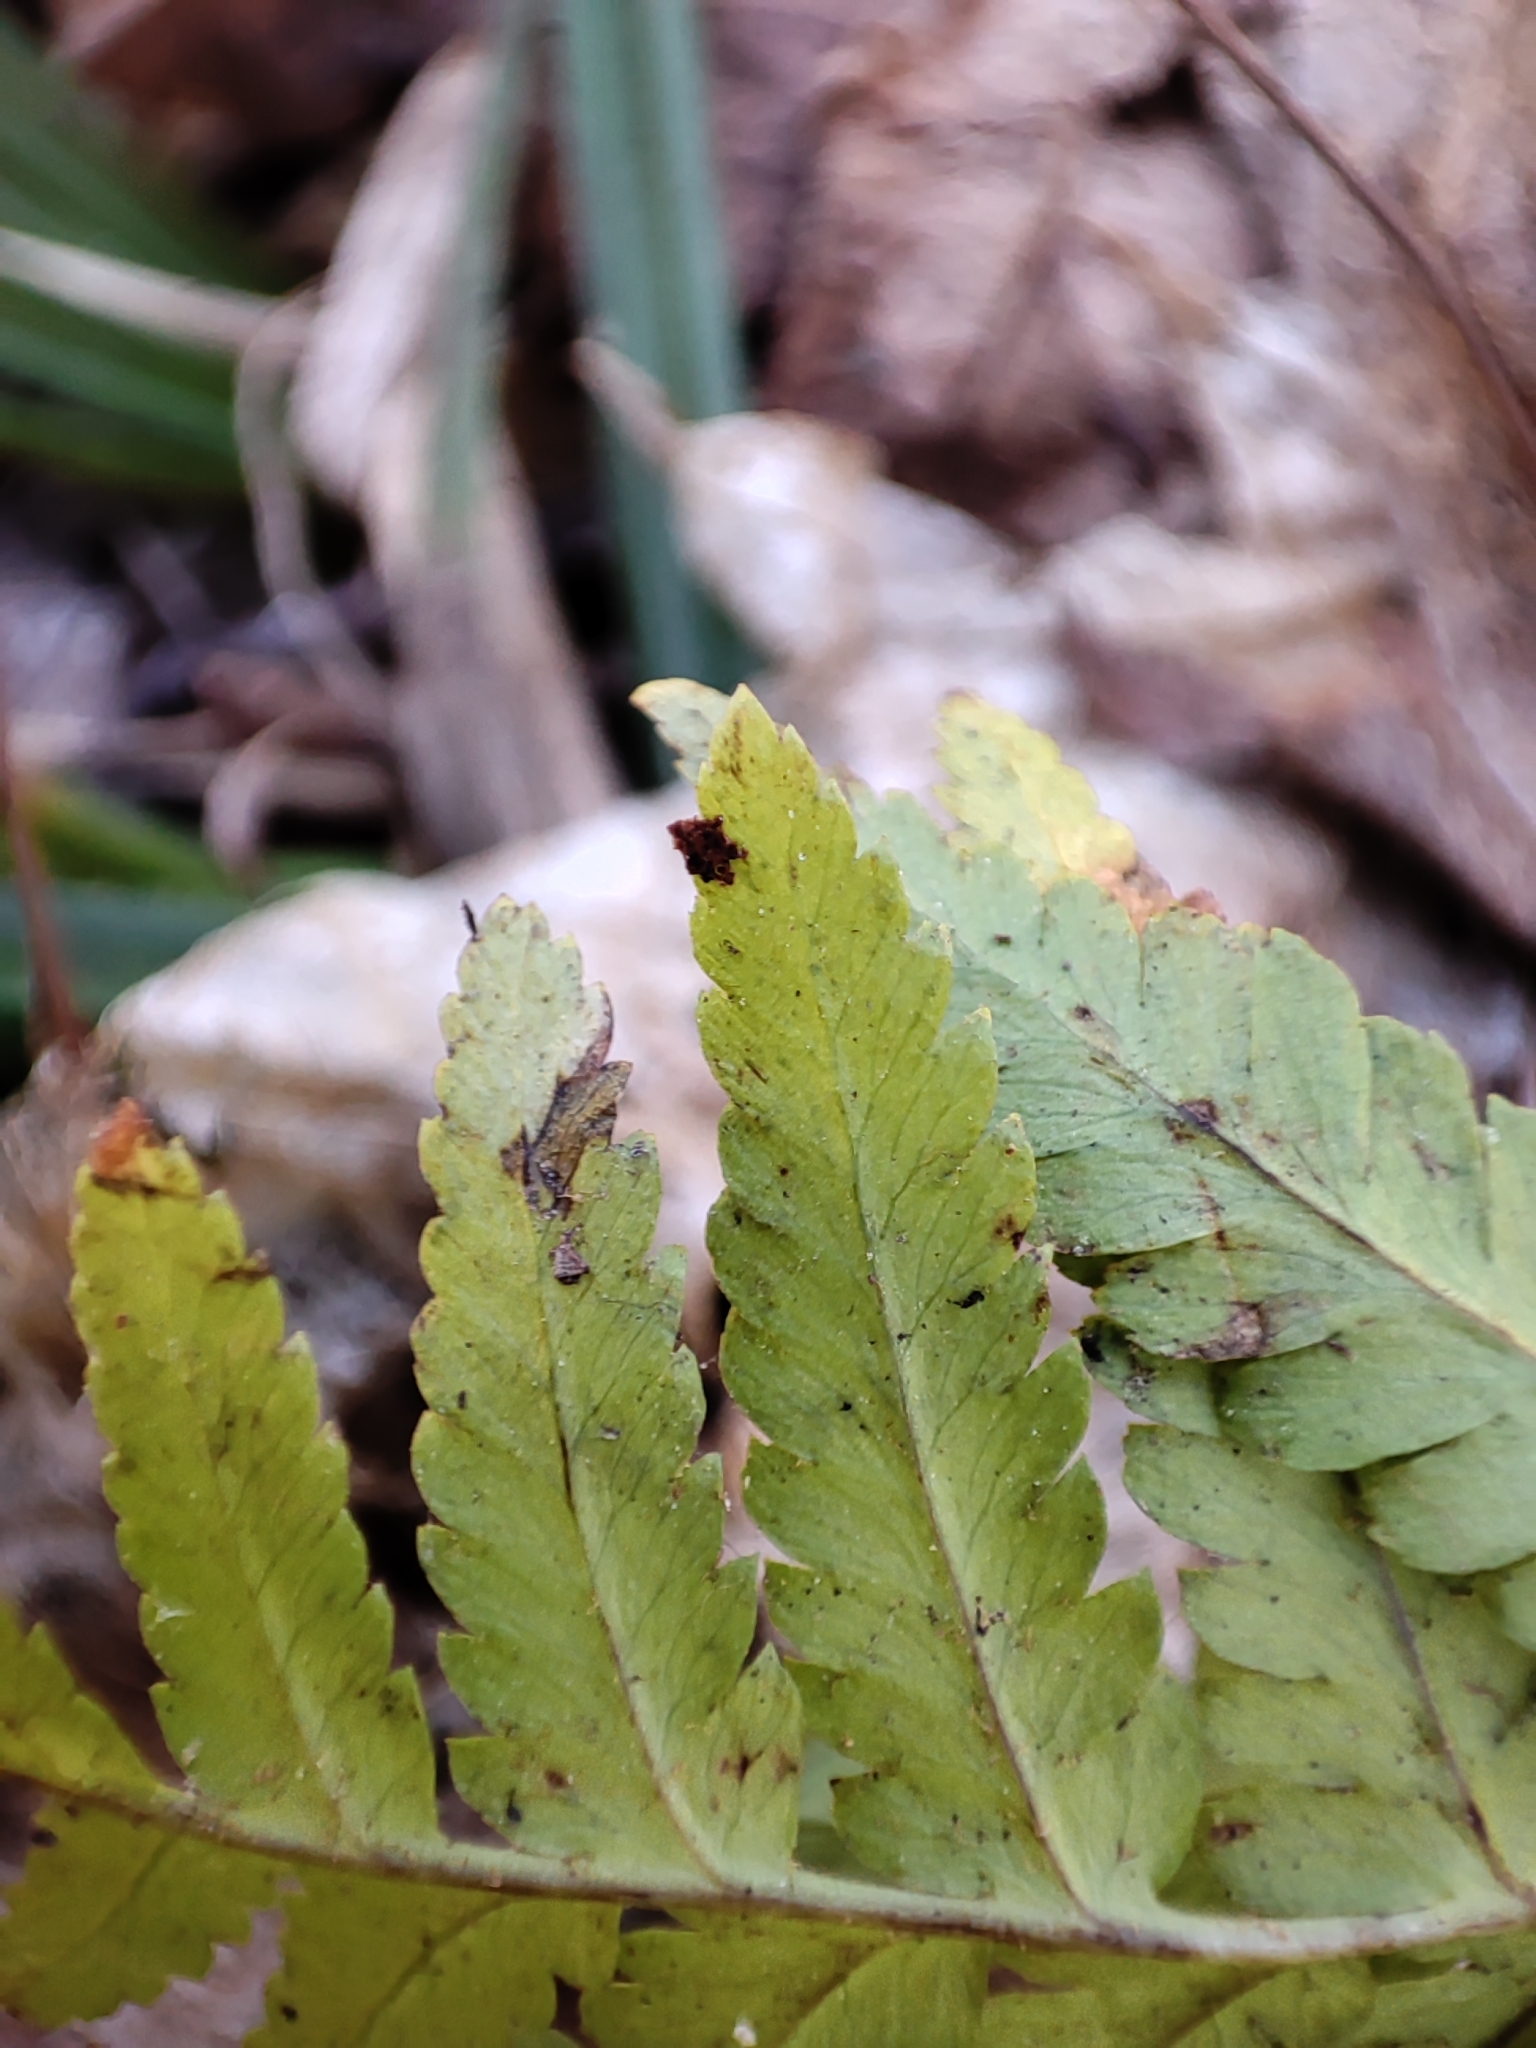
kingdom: Plantae
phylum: Tracheophyta
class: Polypodiopsida
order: Polypodiales
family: Dryopteridaceae
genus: Dryopteris
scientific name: Dryopteris filix-mas
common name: Male fern
